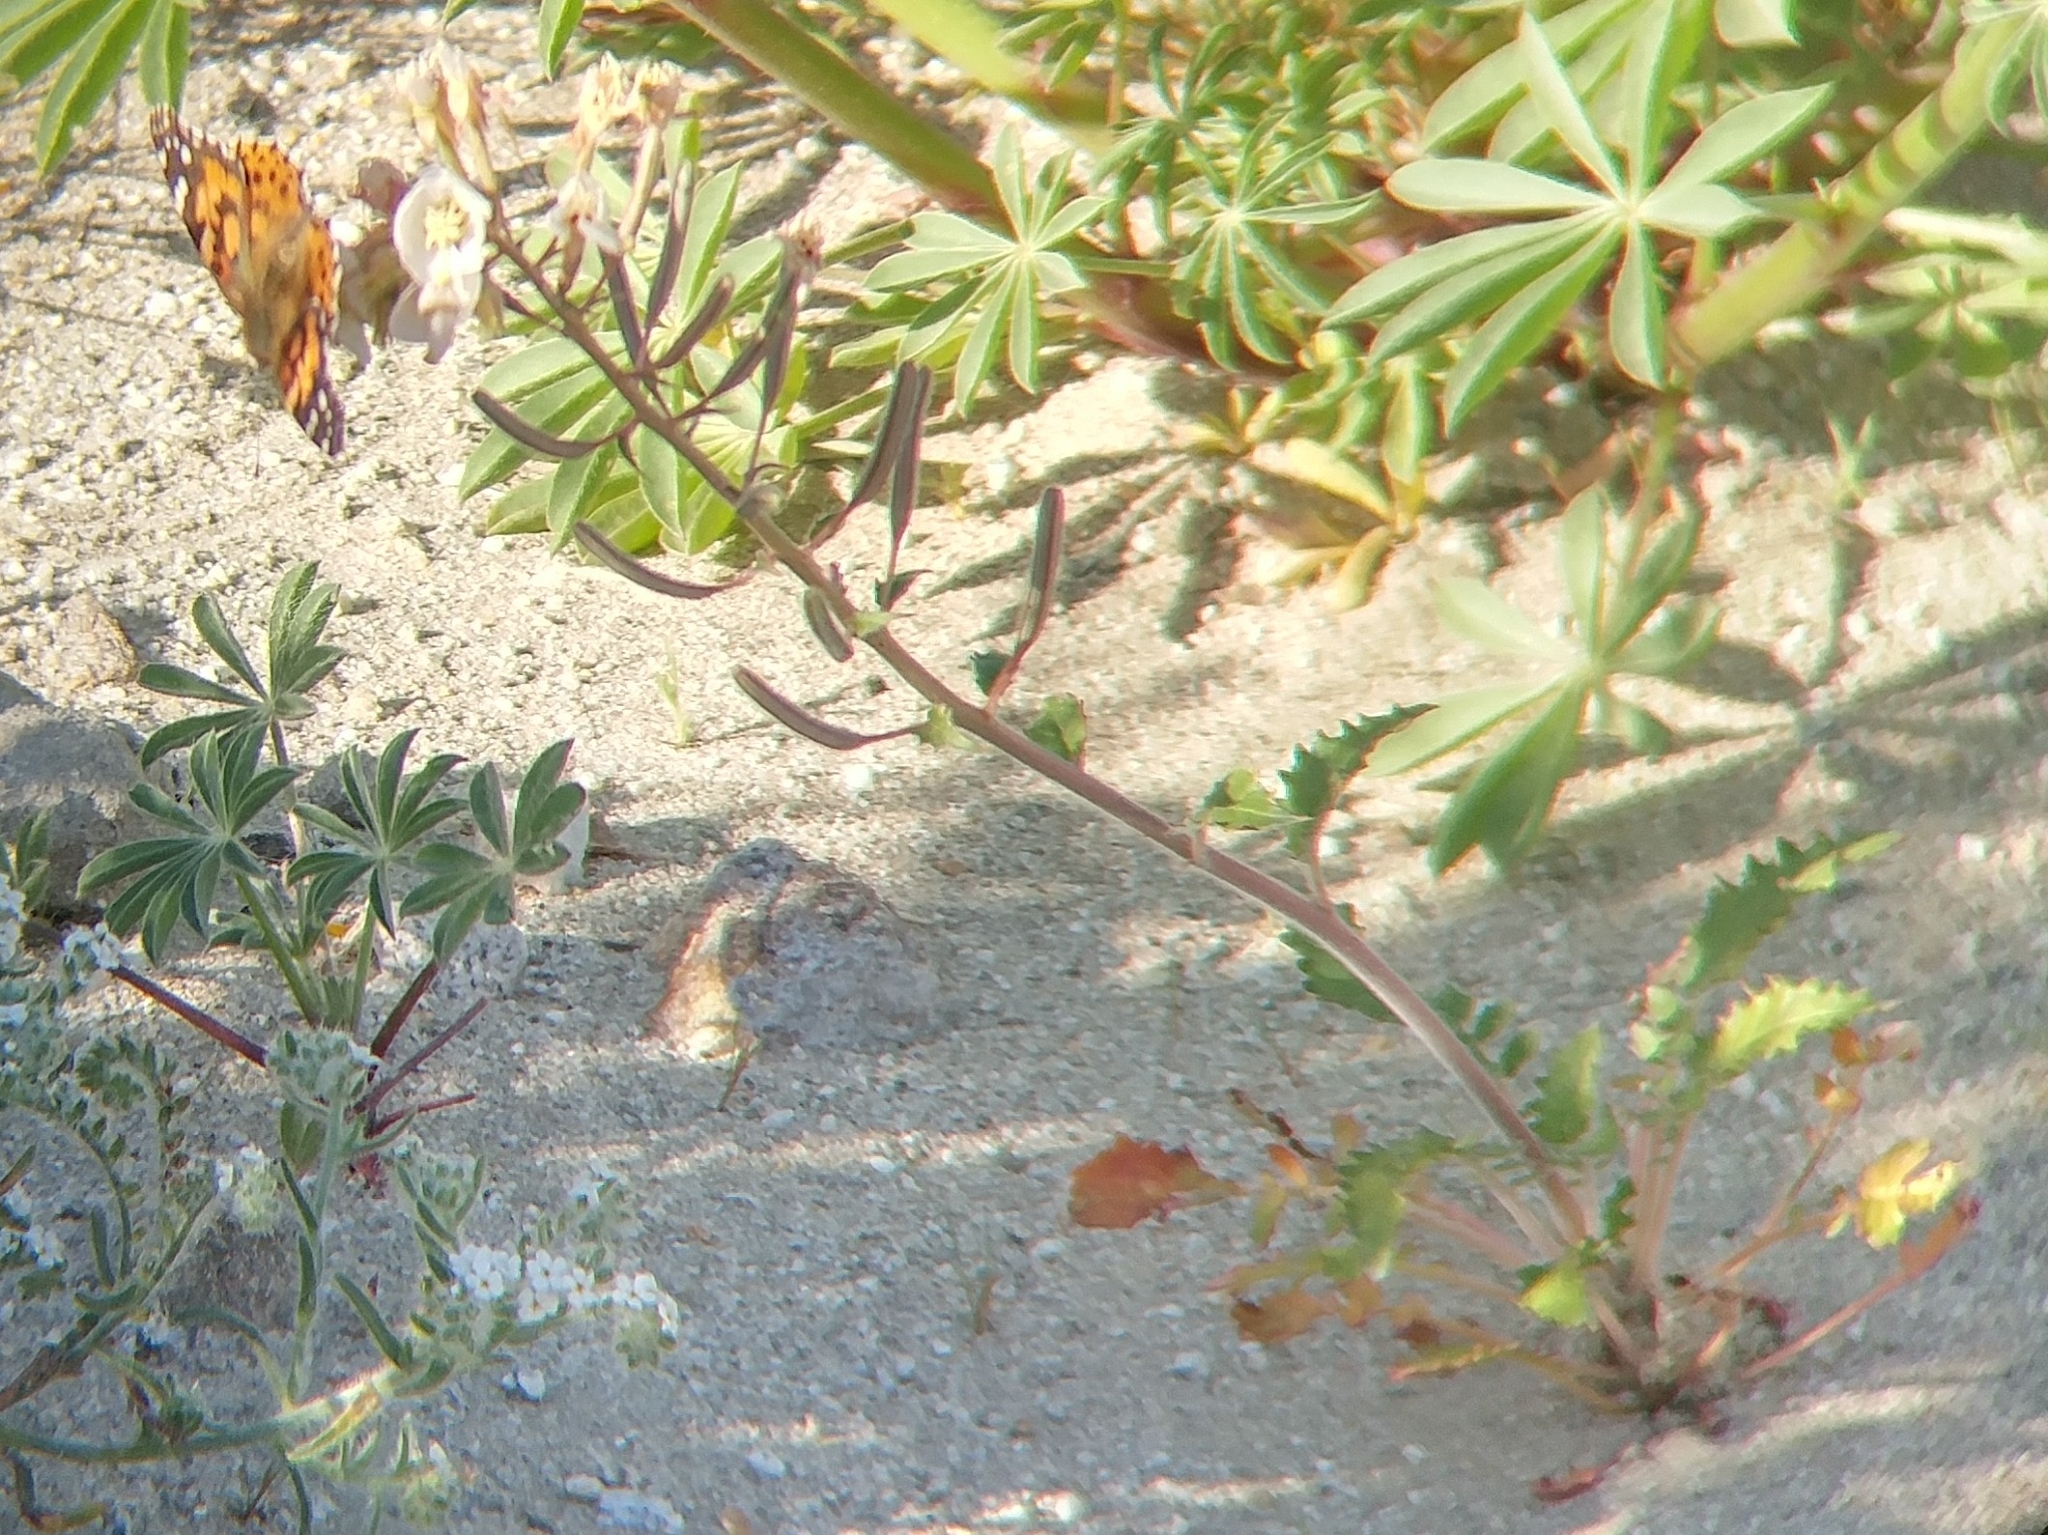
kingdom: Plantae
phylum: Tracheophyta
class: Magnoliopsida
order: Myrtales
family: Onagraceae
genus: Chylismia
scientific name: Chylismia claviformis
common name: Browneyes
